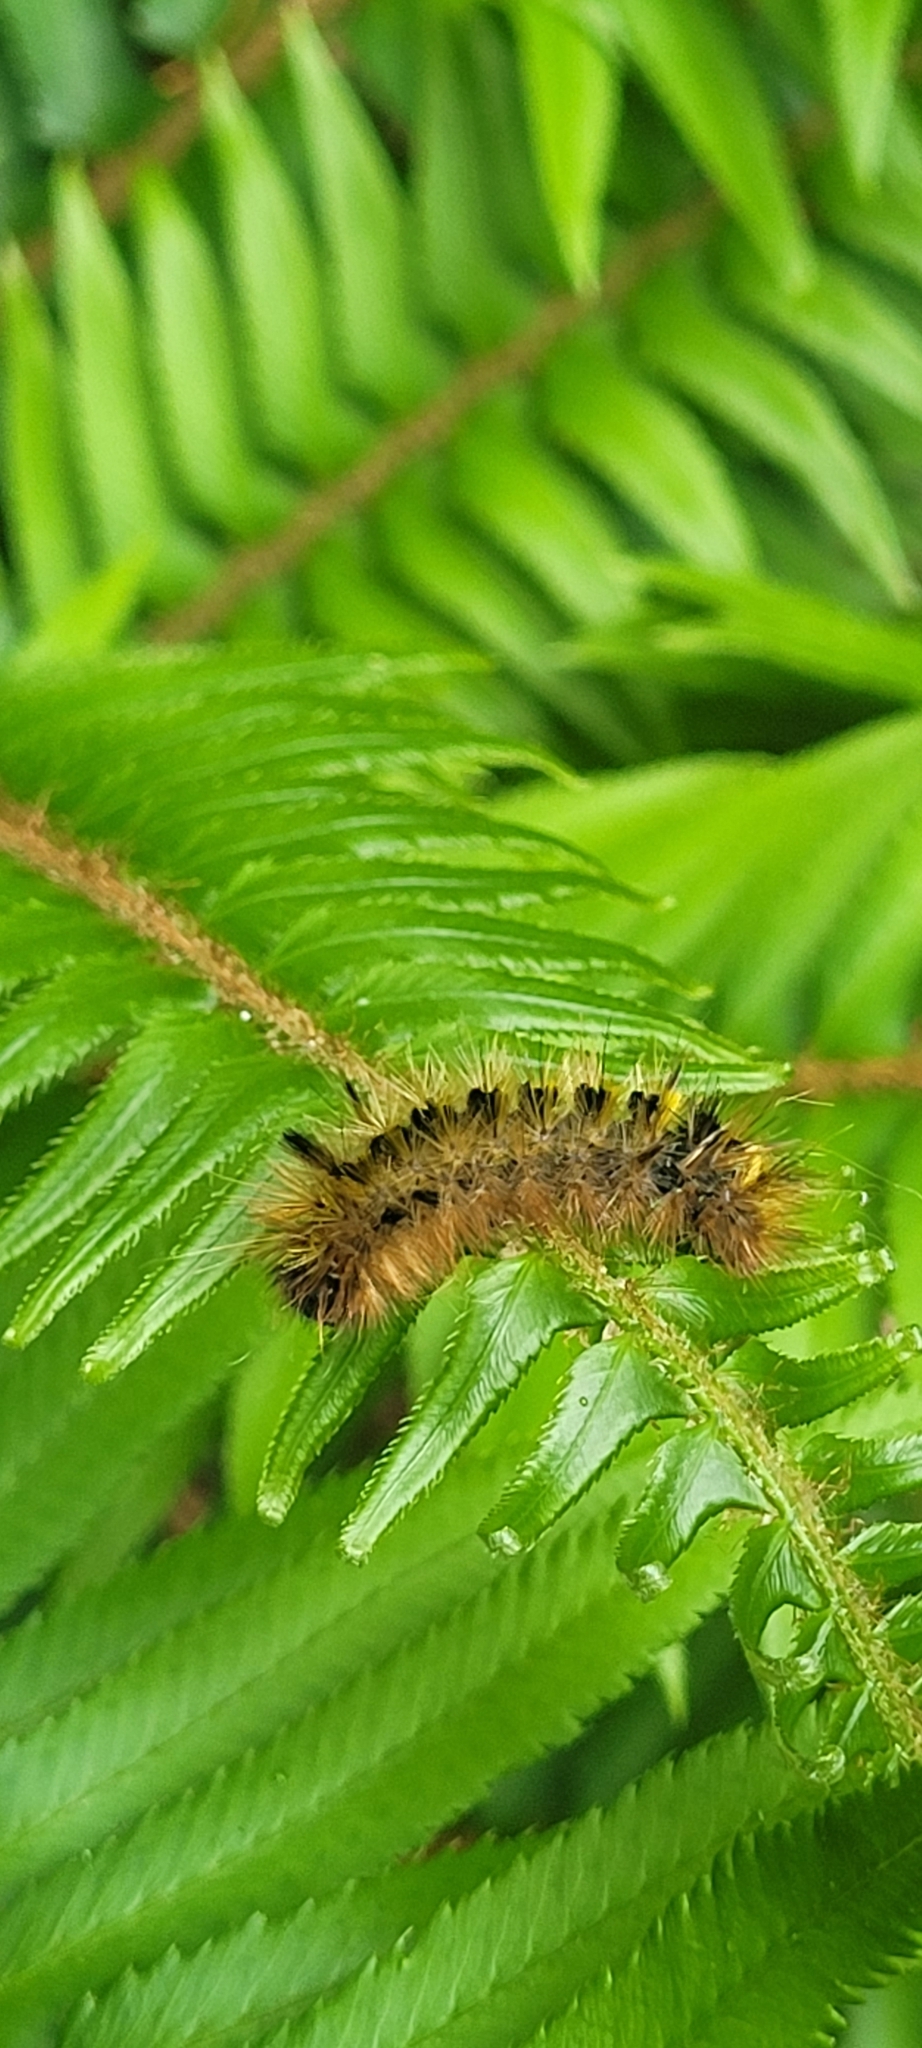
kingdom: Animalia
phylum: Arthropoda
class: Insecta
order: Lepidoptera
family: Erebidae
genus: Lophocampa
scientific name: Lophocampa argentata
